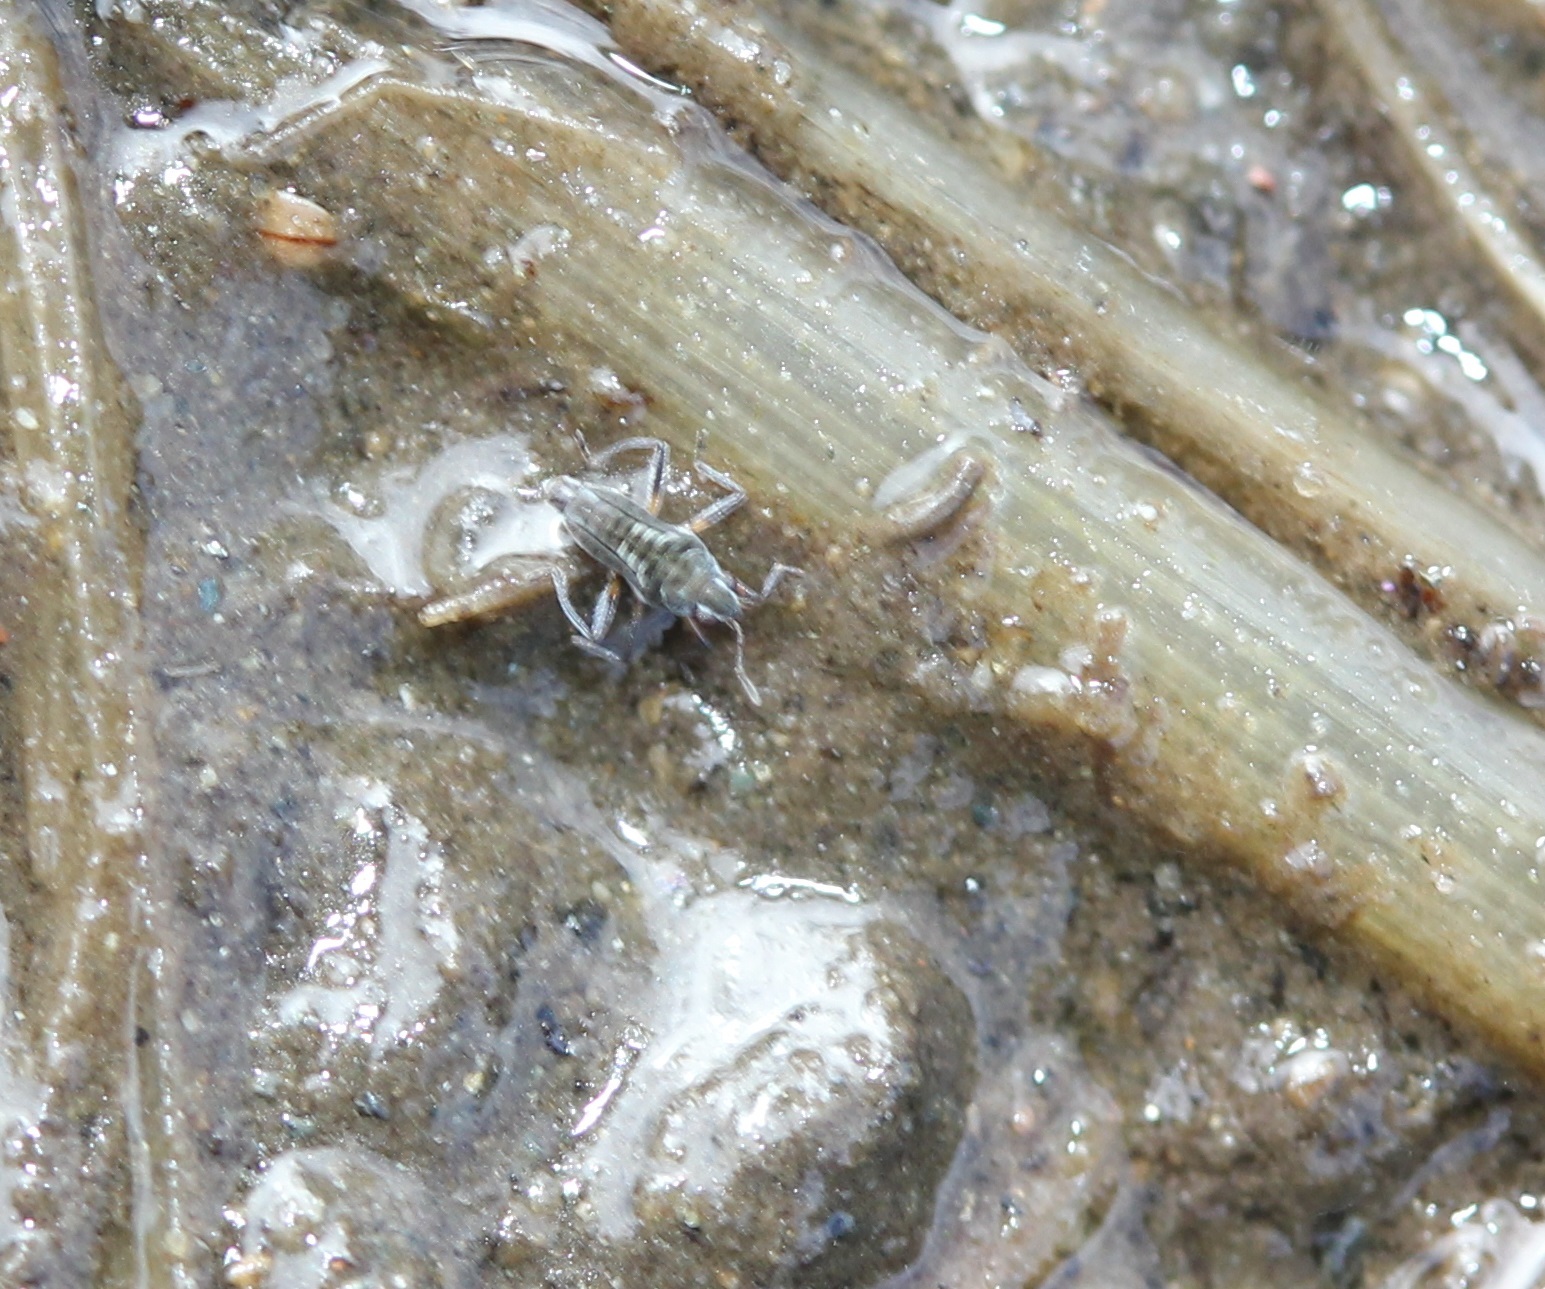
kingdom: Animalia
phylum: Arthropoda
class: Insecta
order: Hemiptera
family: Veliidae
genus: Microvelia
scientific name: Microvelia pulchella
